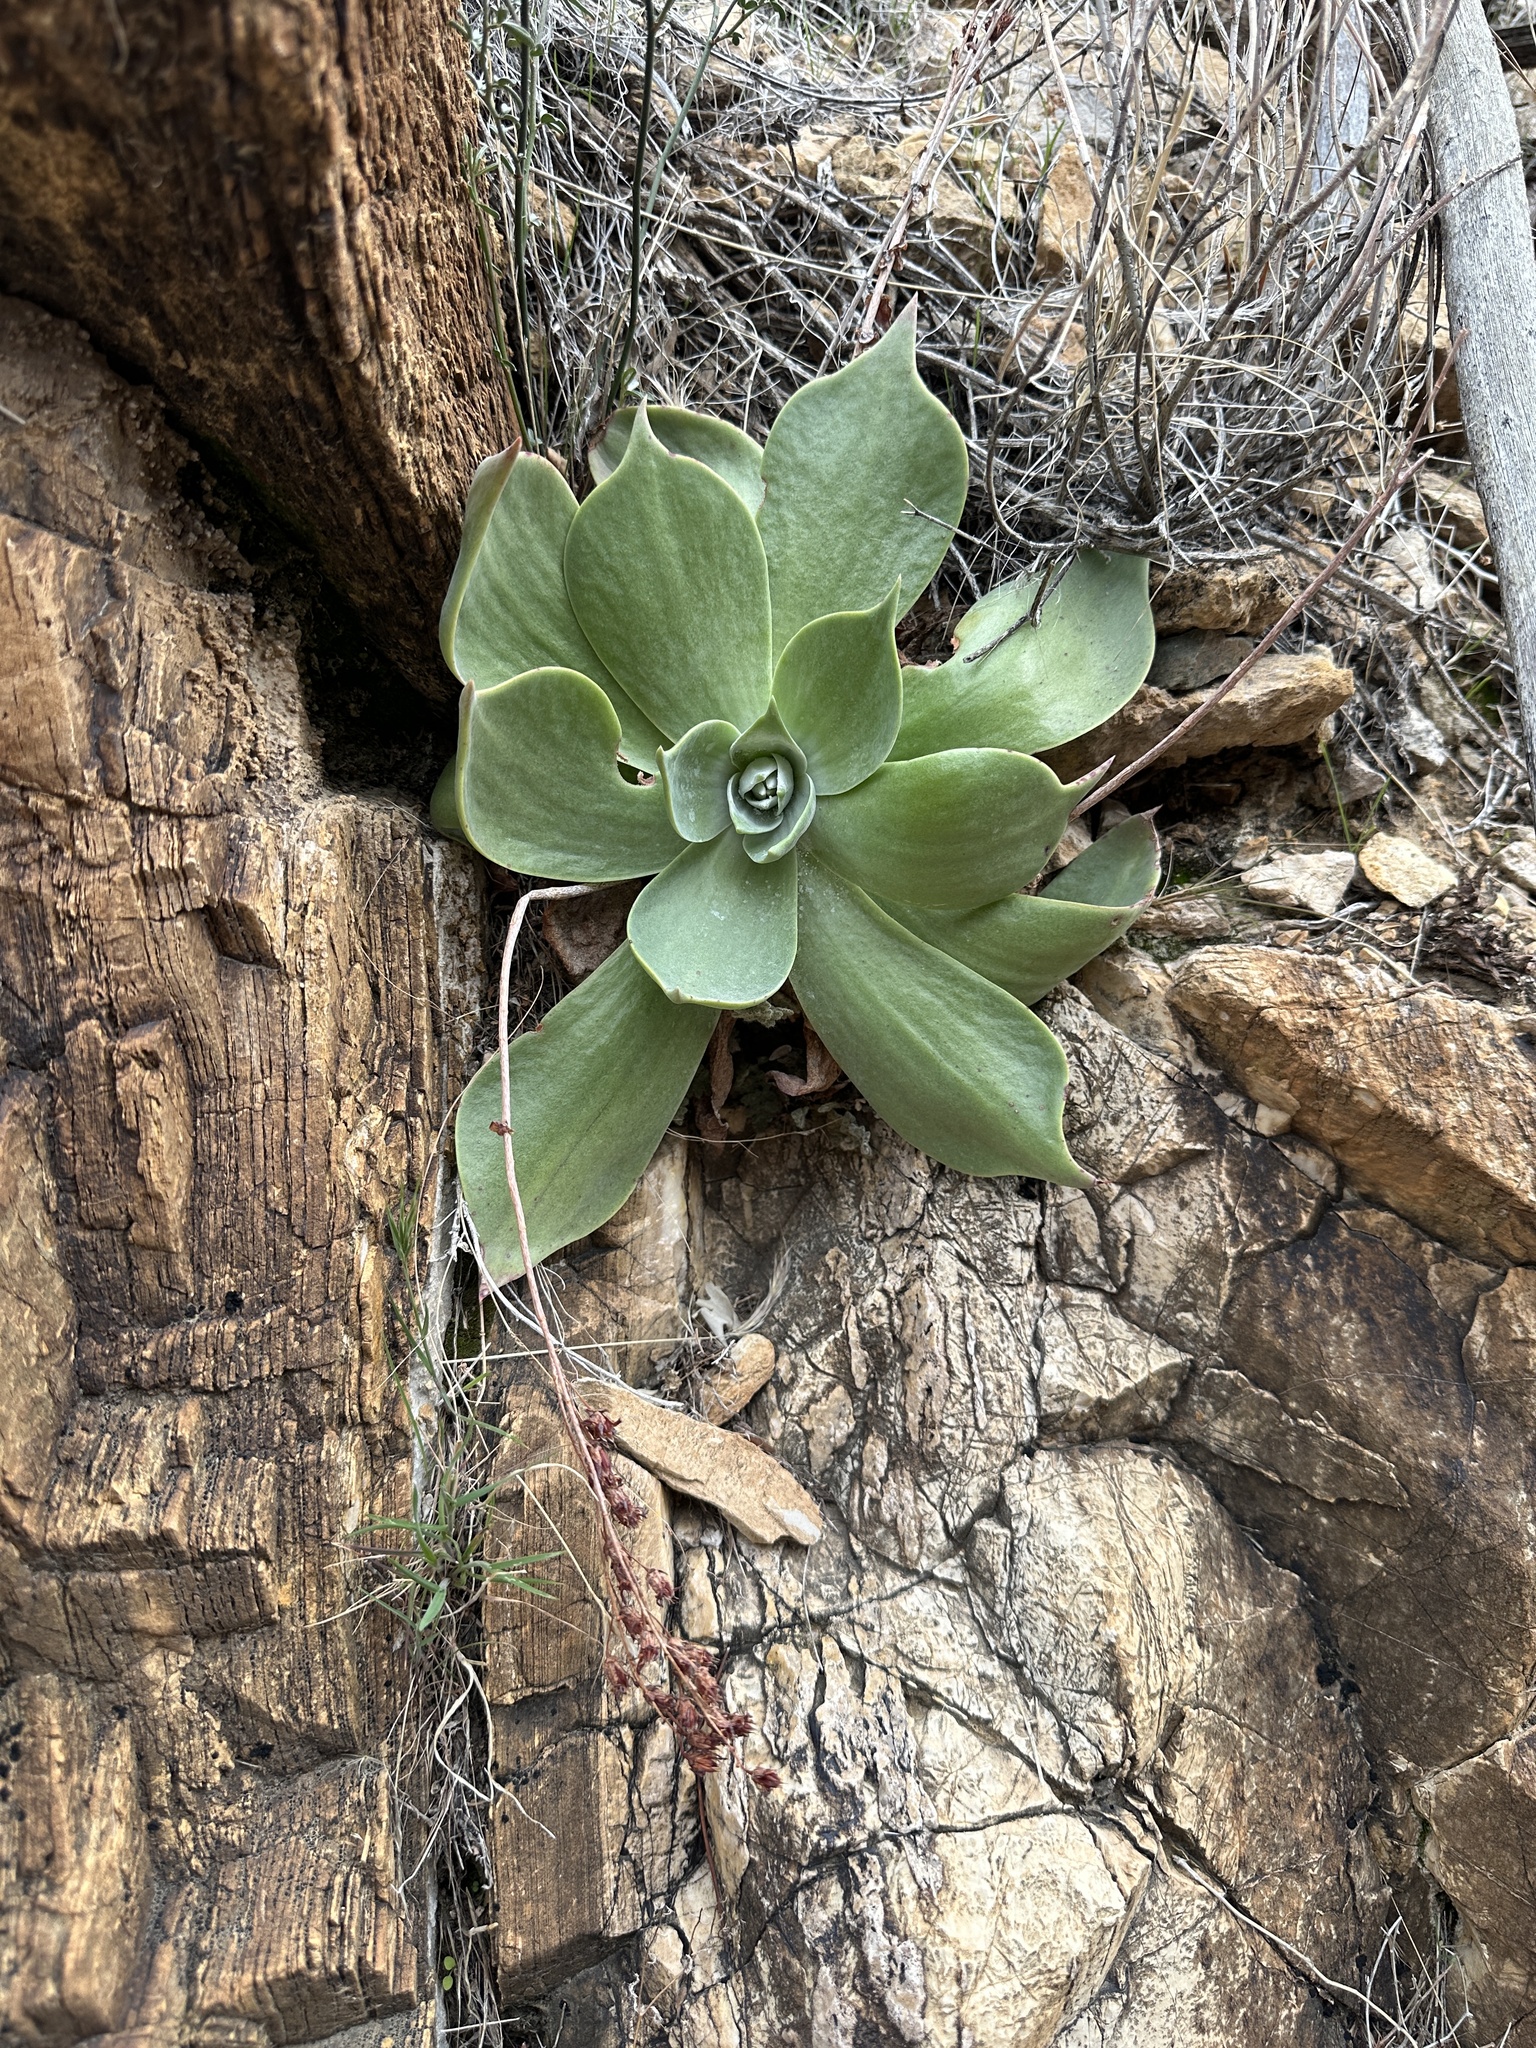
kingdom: Plantae
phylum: Tracheophyta
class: Magnoliopsida
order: Saxifragales
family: Crassulaceae
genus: Dudleya
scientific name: Dudleya arizonica
